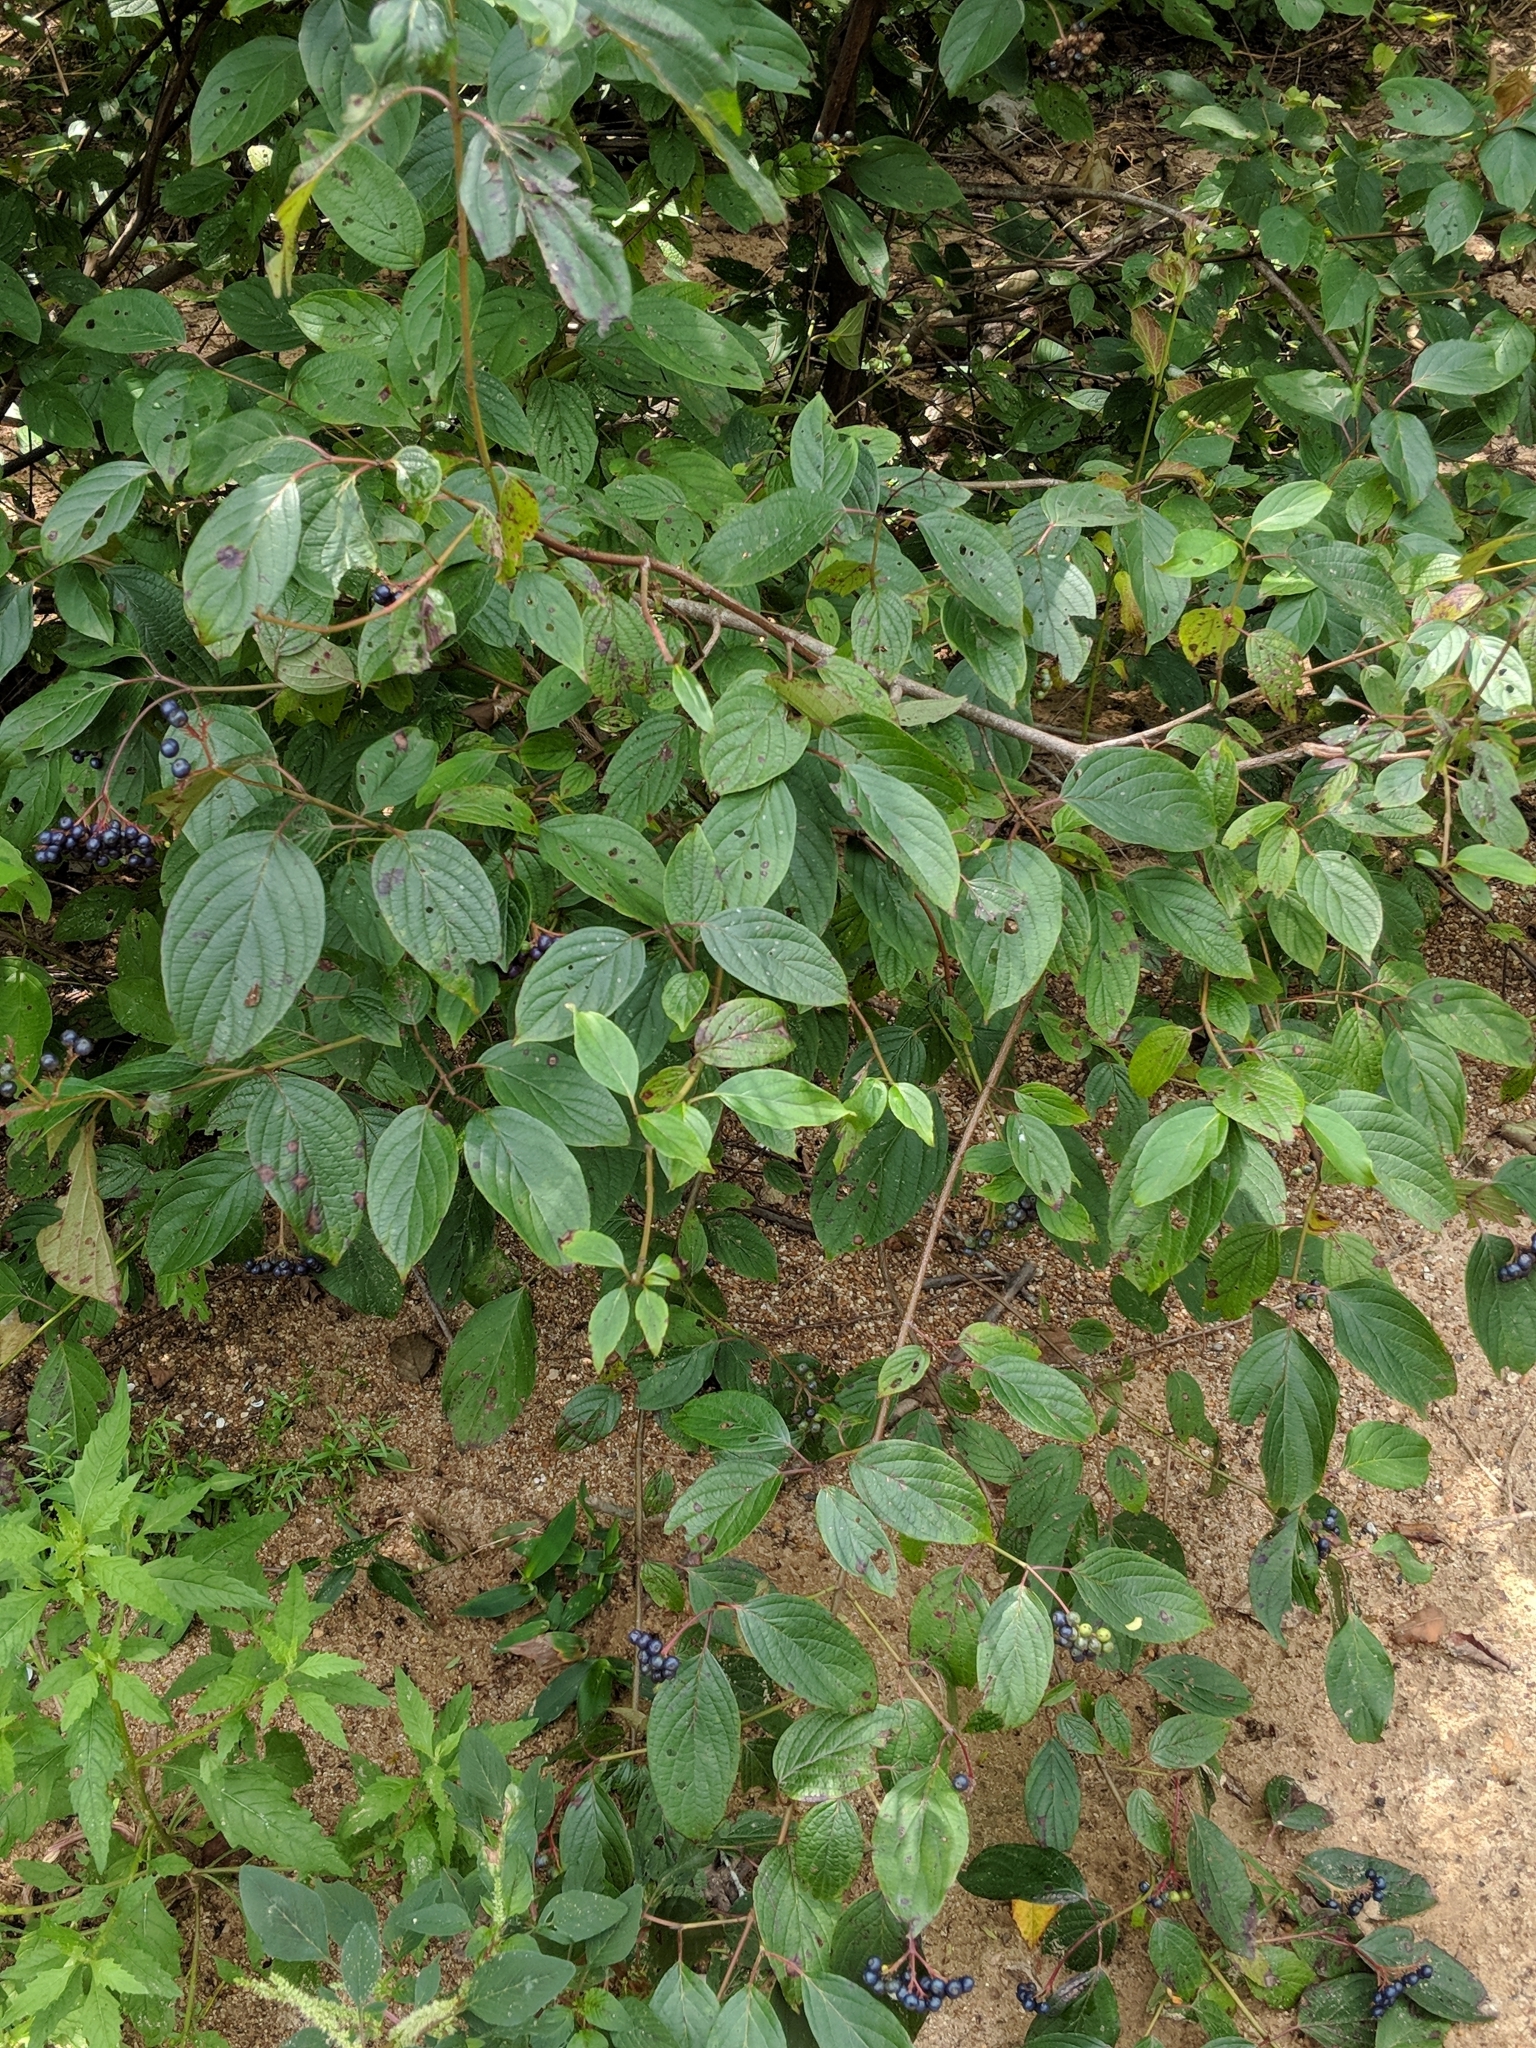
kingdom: Plantae
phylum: Tracheophyta
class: Magnoliopsida
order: Cornales
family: Cornaceae
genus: Cornus
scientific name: Cornus amomum
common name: Silky dogwood
